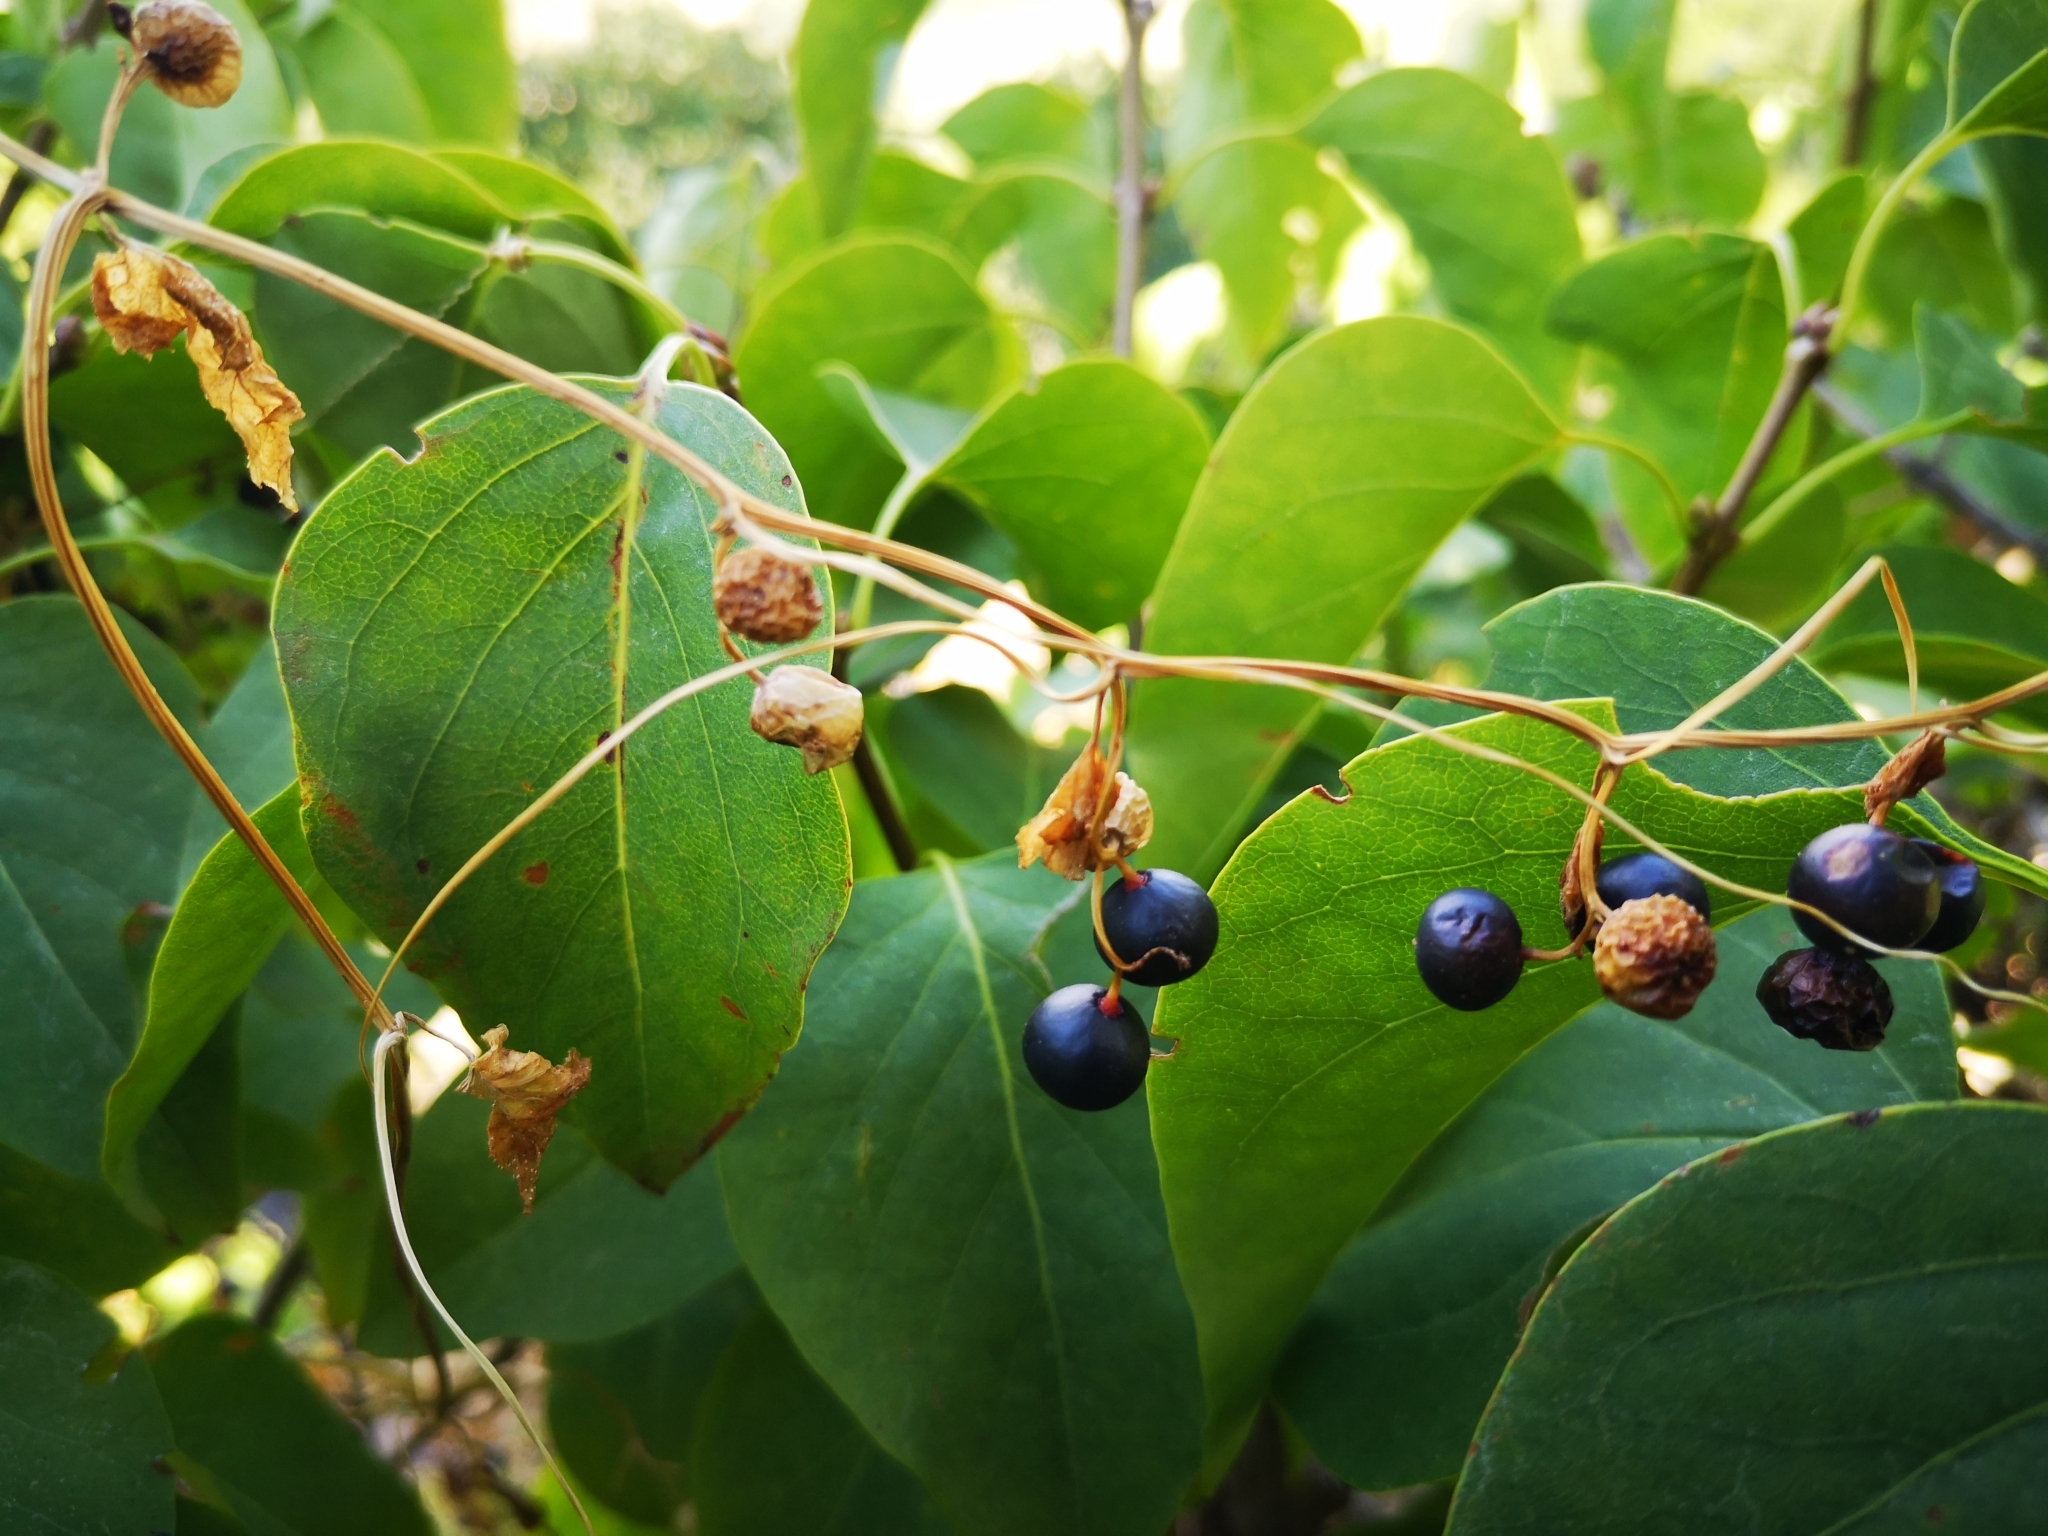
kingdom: Plantae
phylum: Tracheophyta
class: Liliopsida
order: Dioscoreales
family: Dioscoreaceae
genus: Dioscorea
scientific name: Dioscorea communis
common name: Black-bindweed
